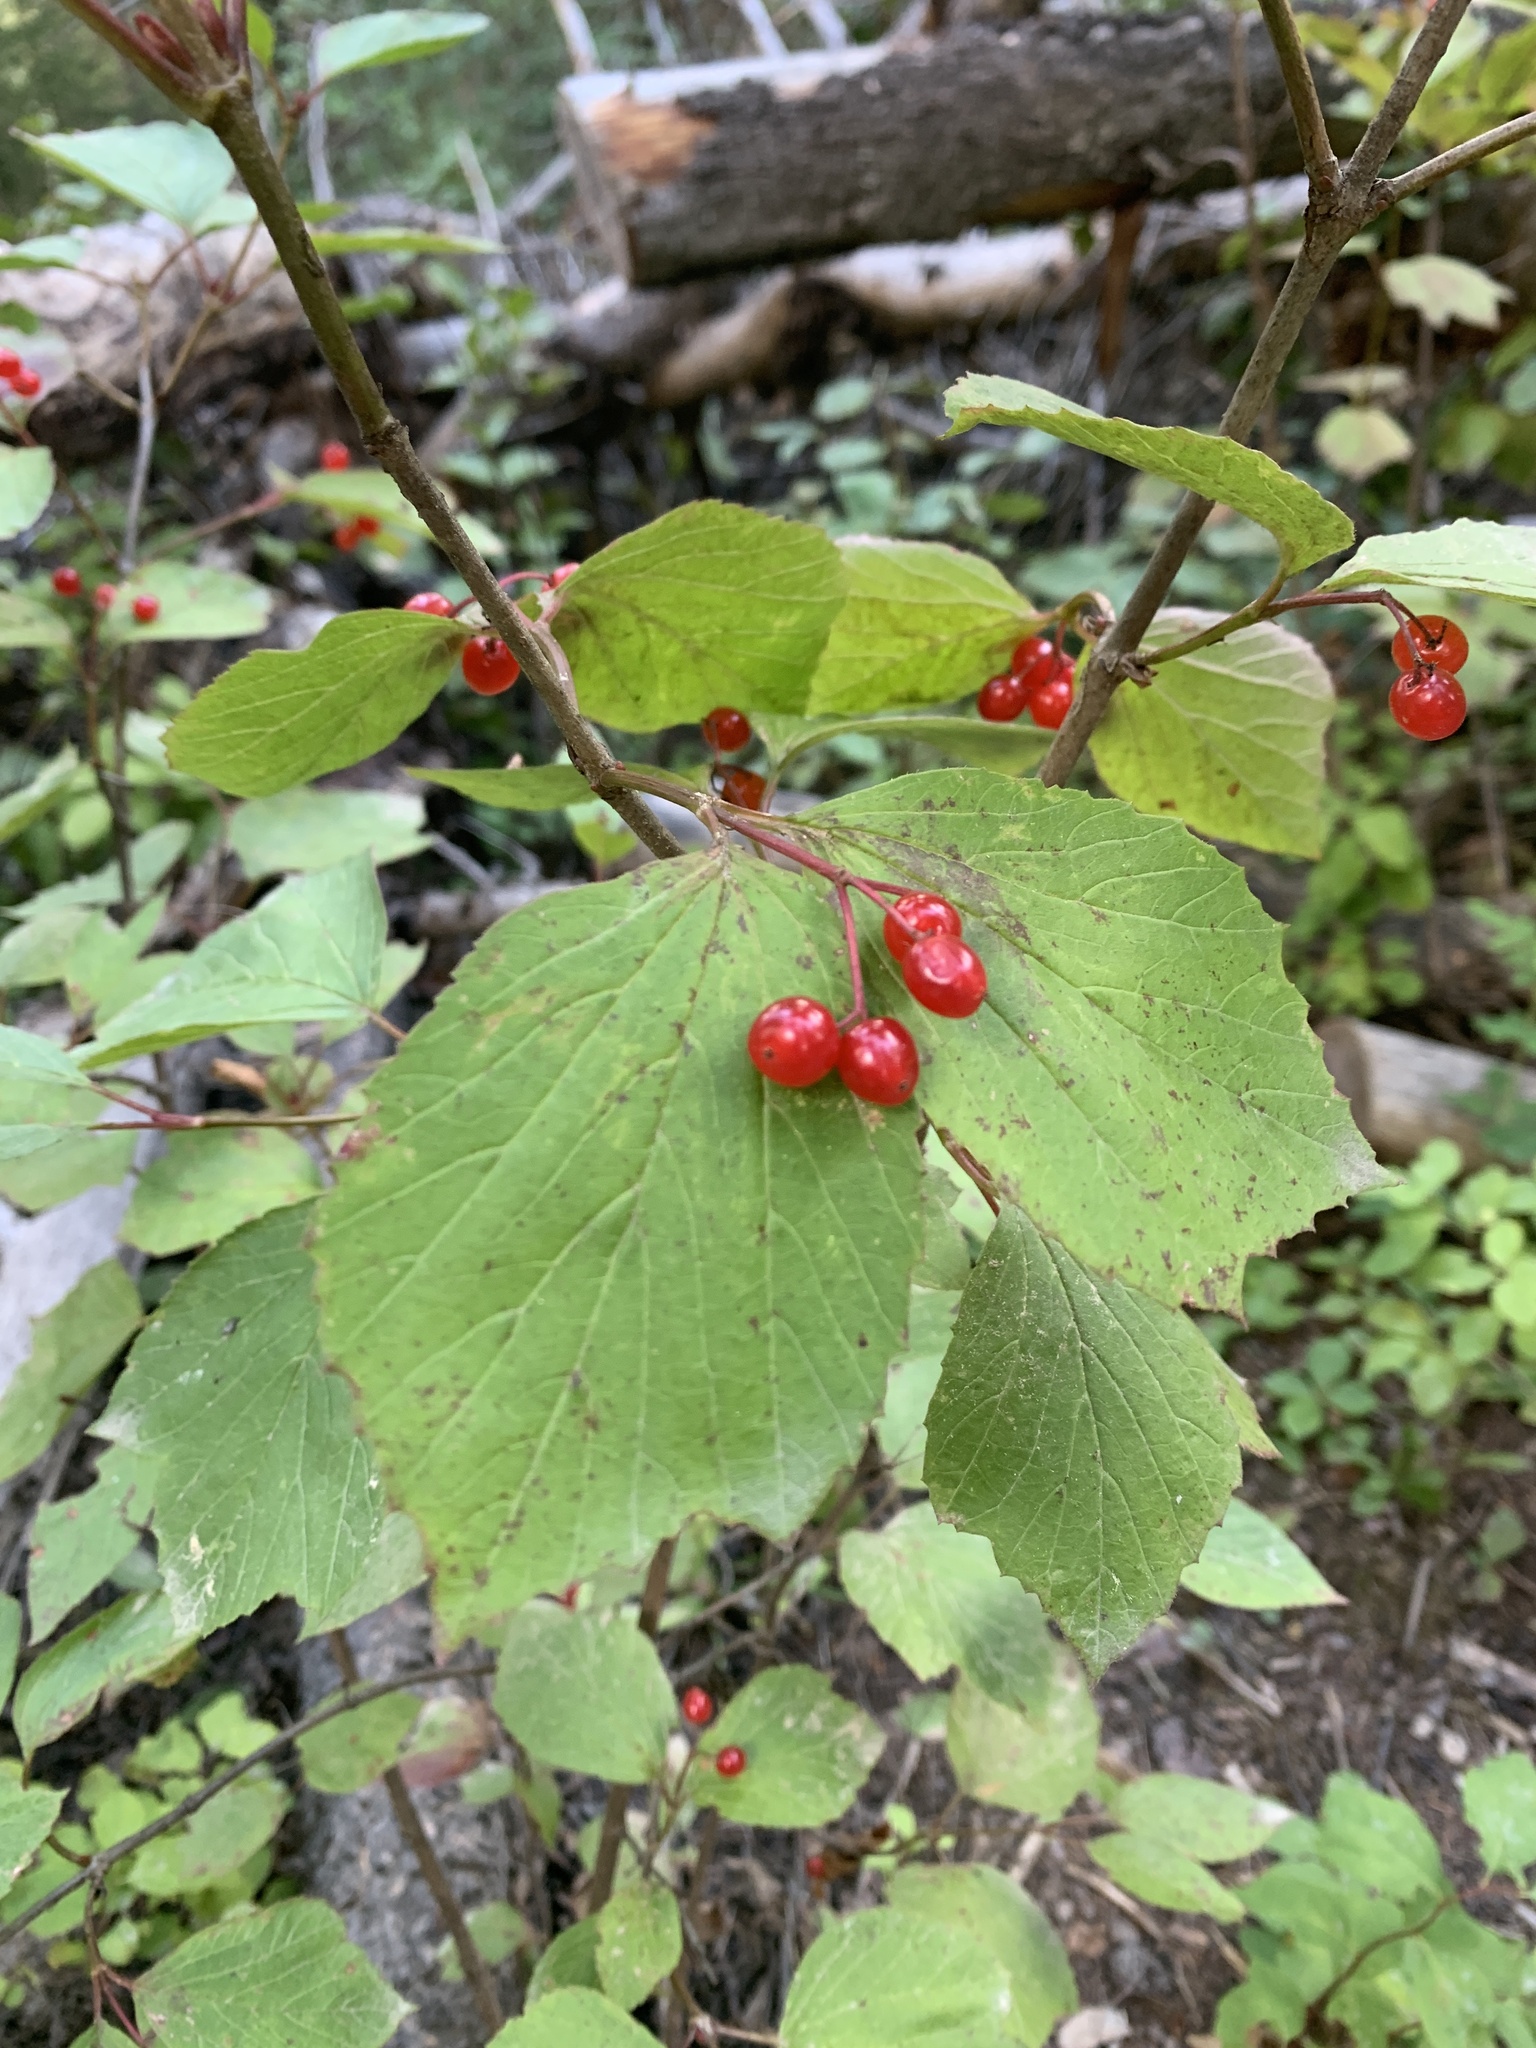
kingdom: Plantae
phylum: Tracheophyta
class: Magnoliopsida
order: Dipsacales
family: Viburnaceae
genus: Viburnum
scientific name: Viburnum edule
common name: Mooseberry
